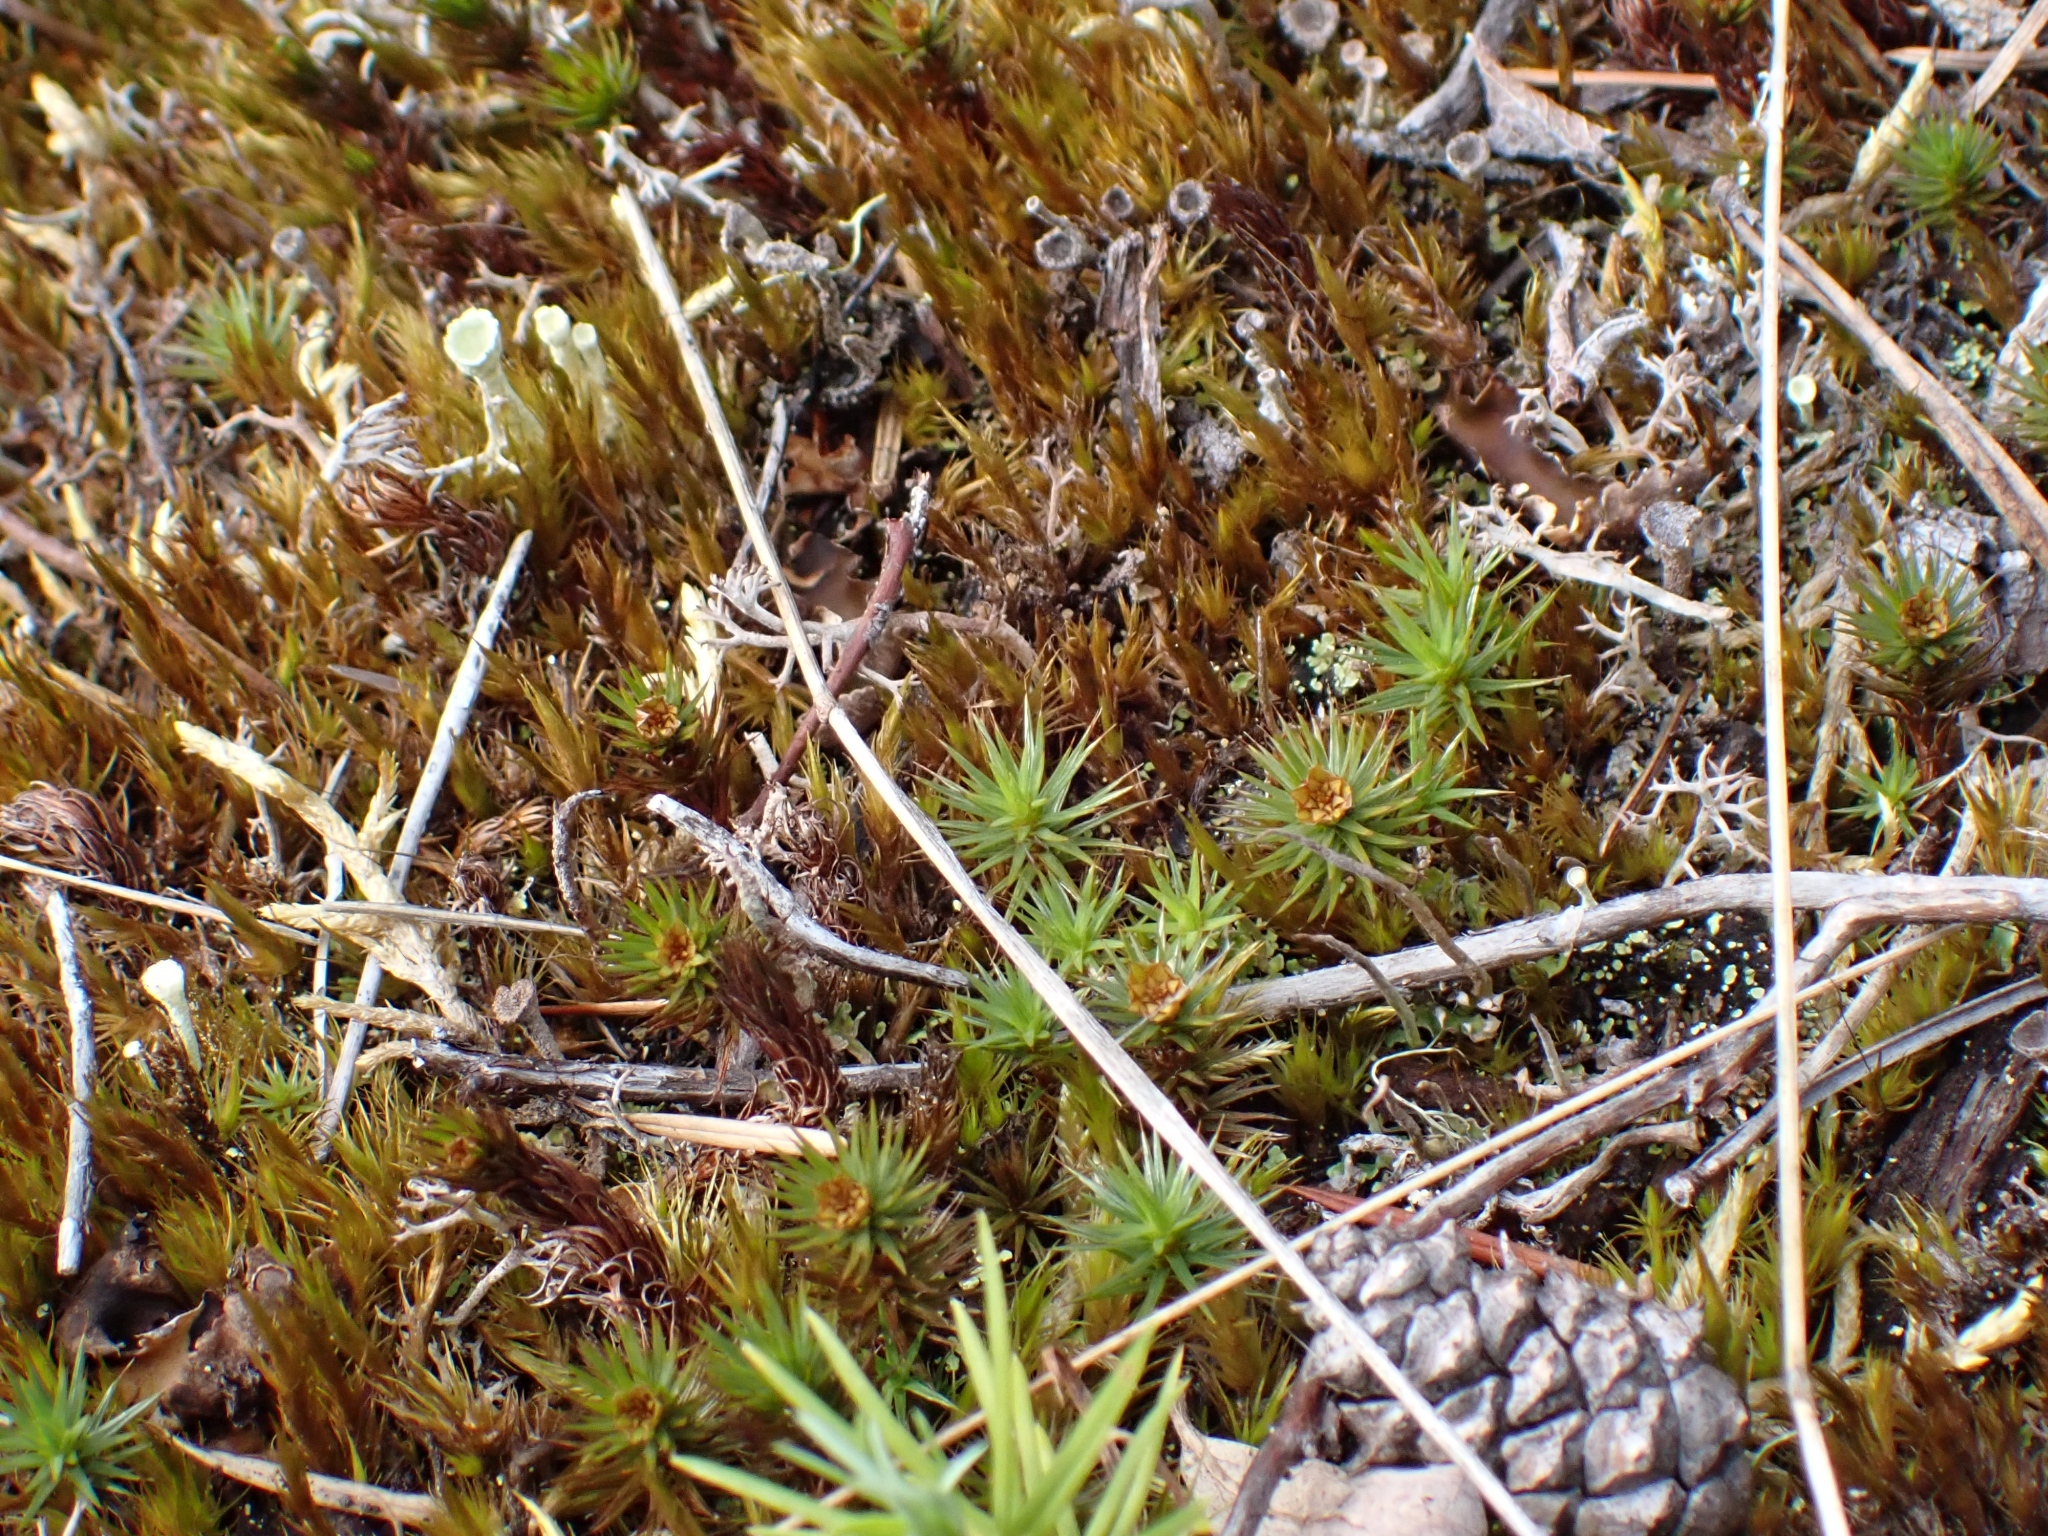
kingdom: Plantae
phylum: Bryophyta
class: Polytrichopsida
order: Polytrichales
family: Polytrichaceae
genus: Polytrichum
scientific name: Polytrichum juniperinum
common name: Juniper haircap moss
